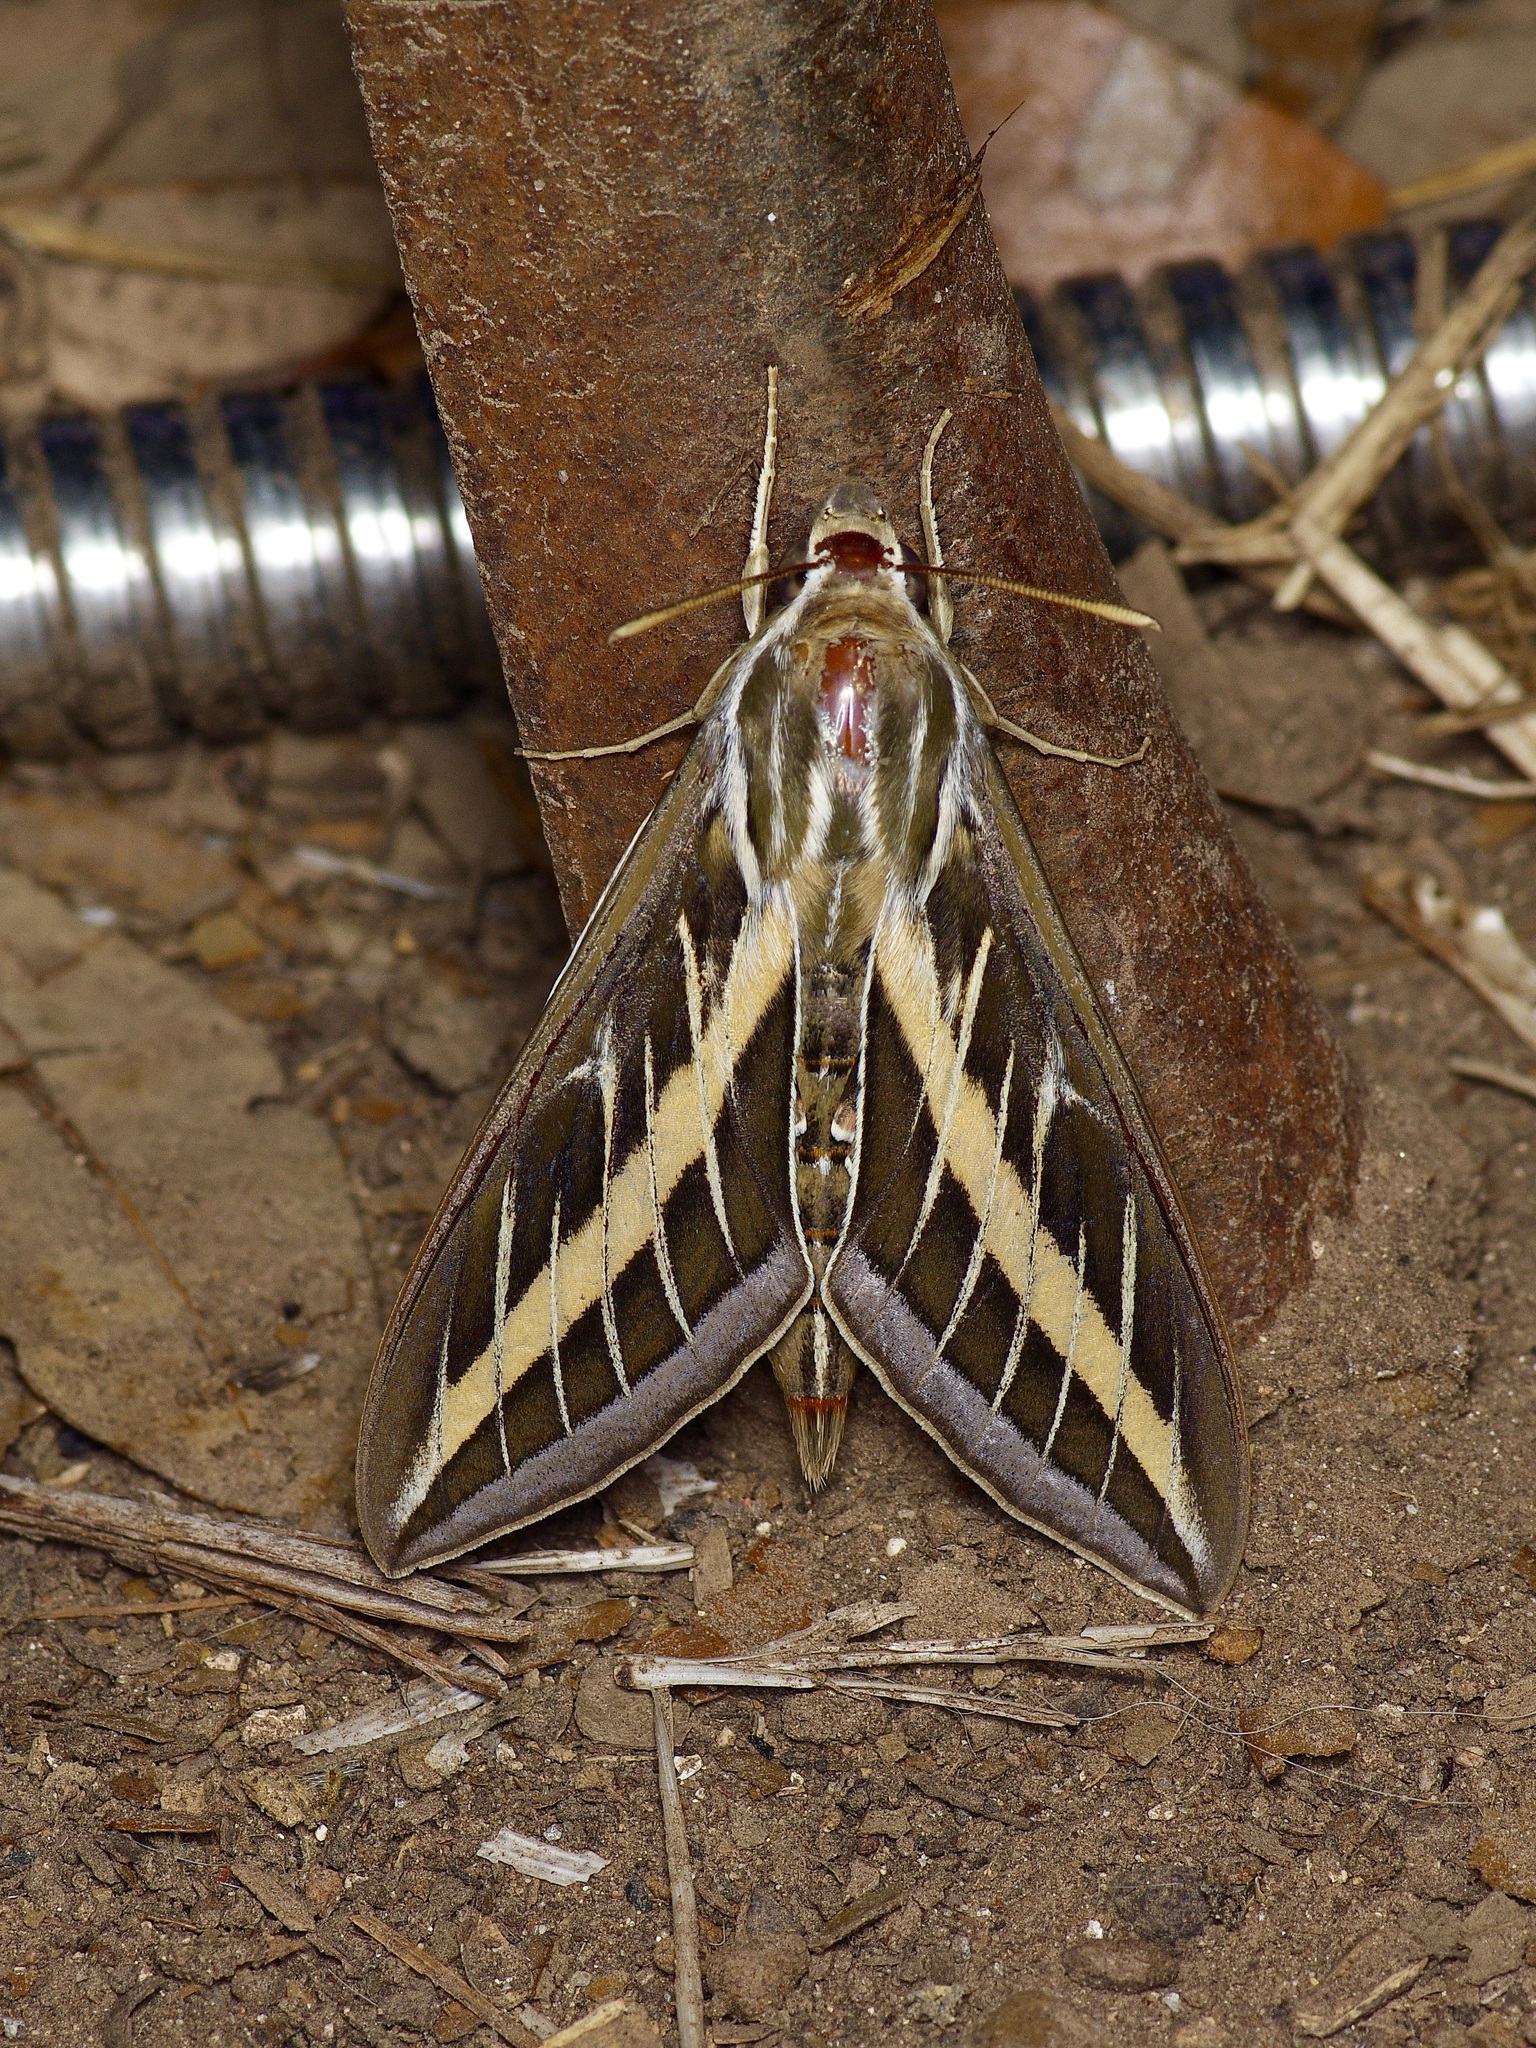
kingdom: Animalia
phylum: Arthropoda
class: Insecta
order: Lepidoptera
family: Sphingidae
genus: Hyles
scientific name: Hyles lineata
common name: White-lined sphinx
